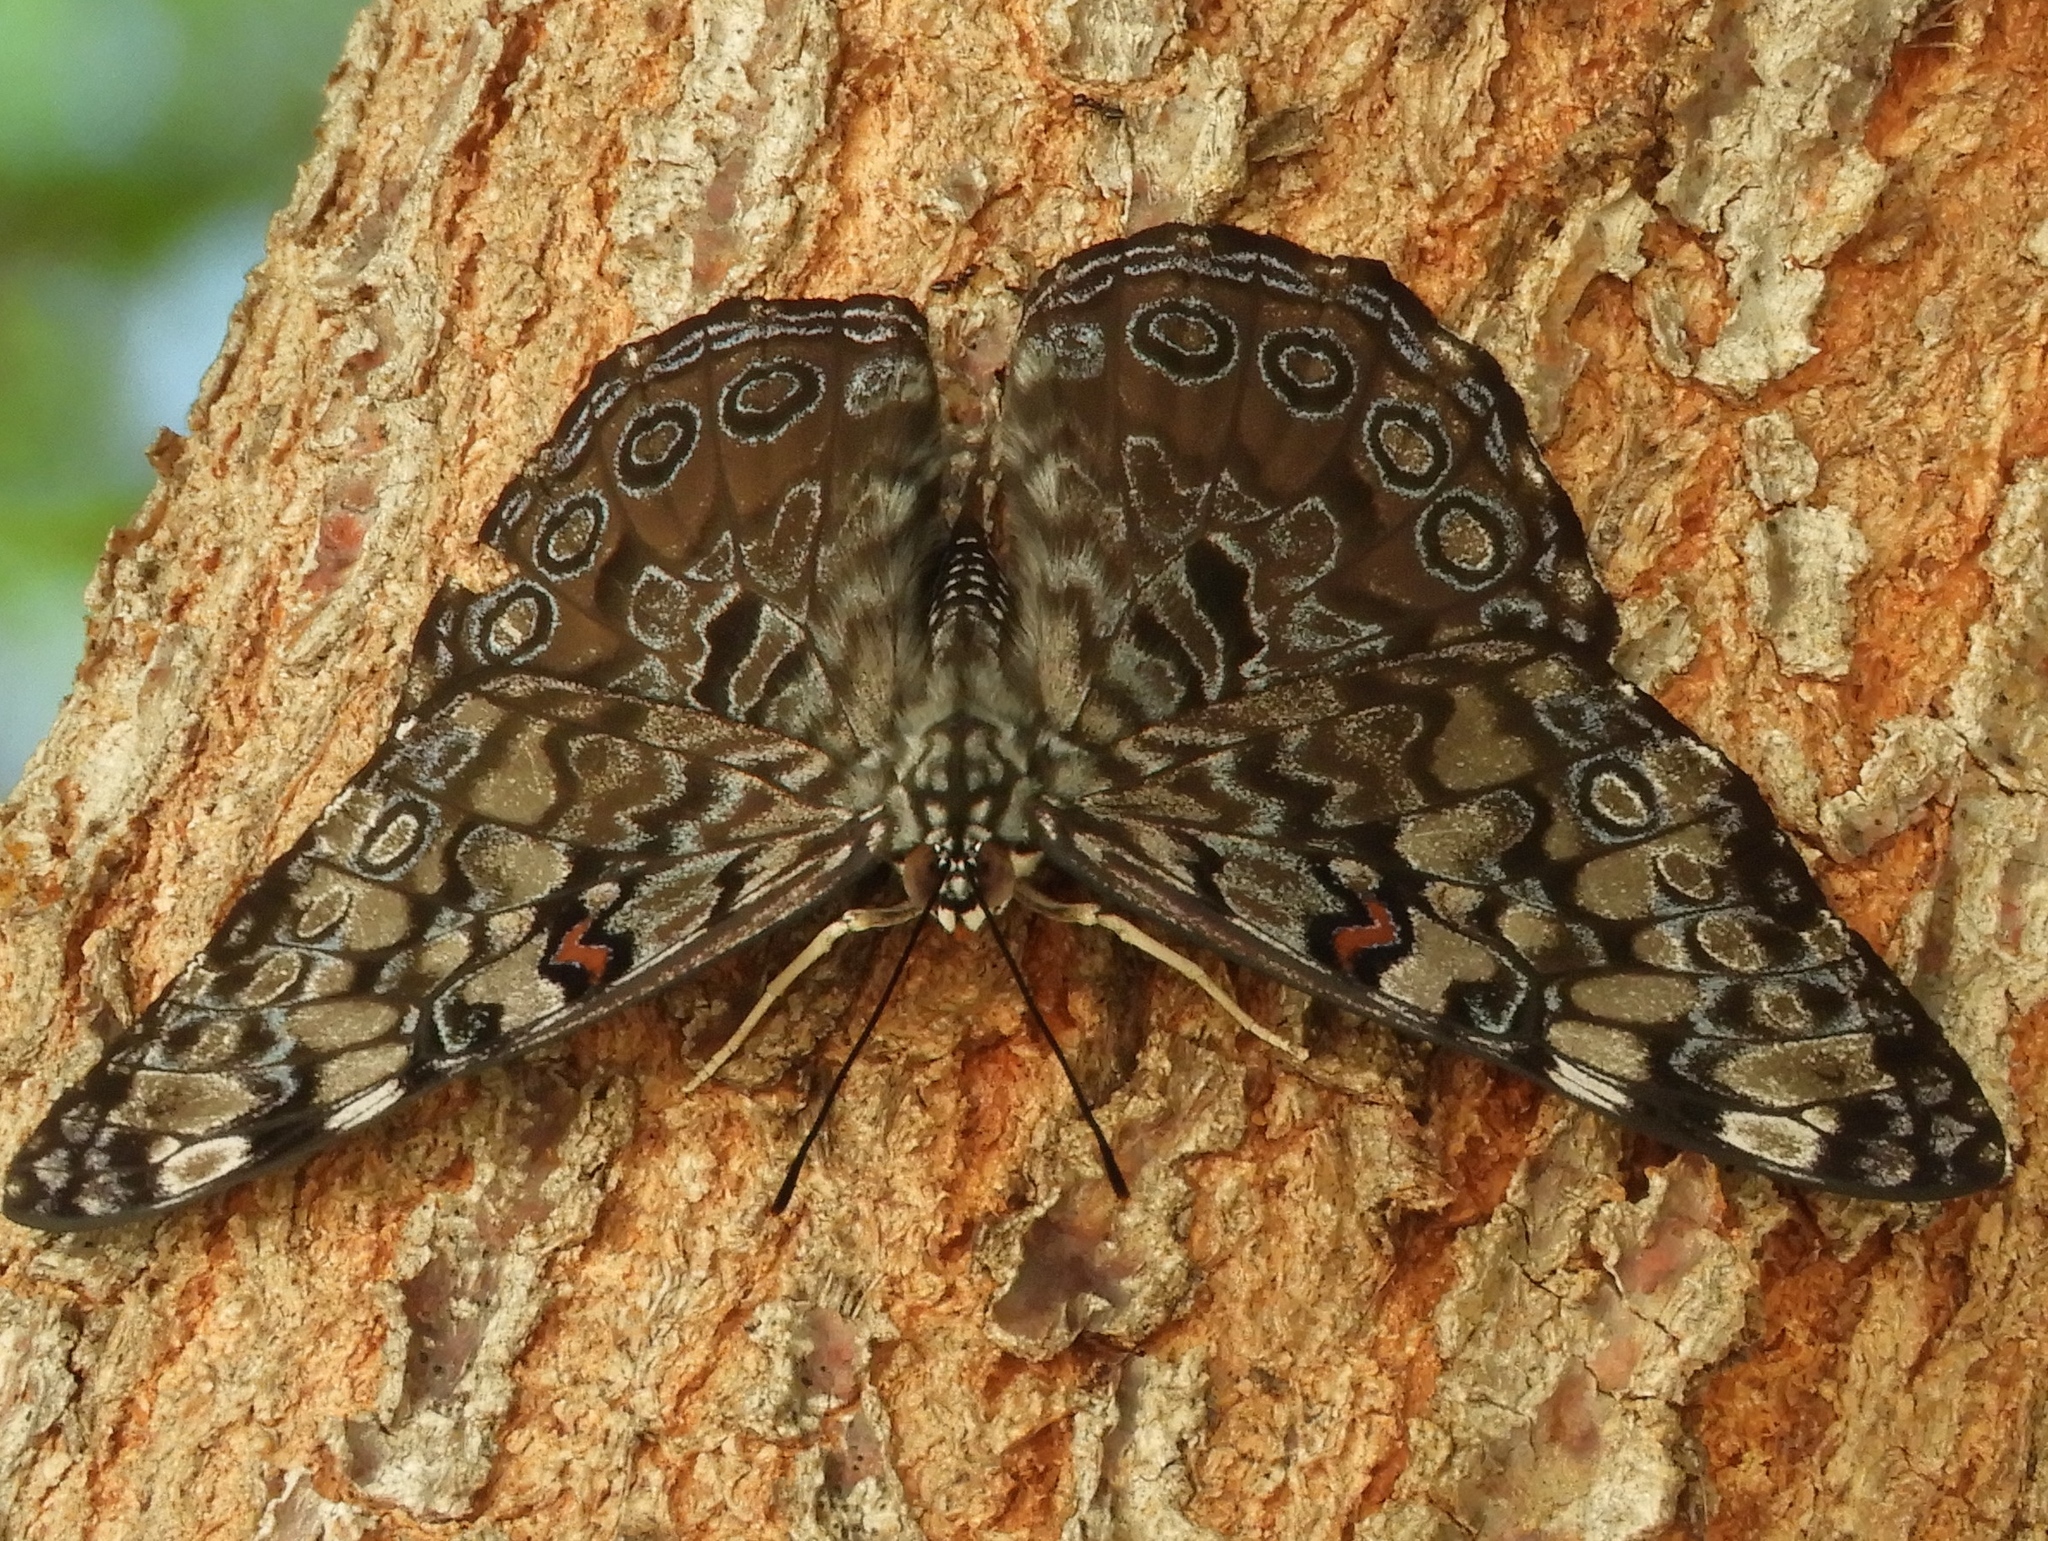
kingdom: Animalia
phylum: Arthropoda
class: Insecta
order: Lepidoptera
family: Nymphalidae
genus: Hamadryas
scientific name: Hamadryas guatemalena
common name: Guatemalan cracker
